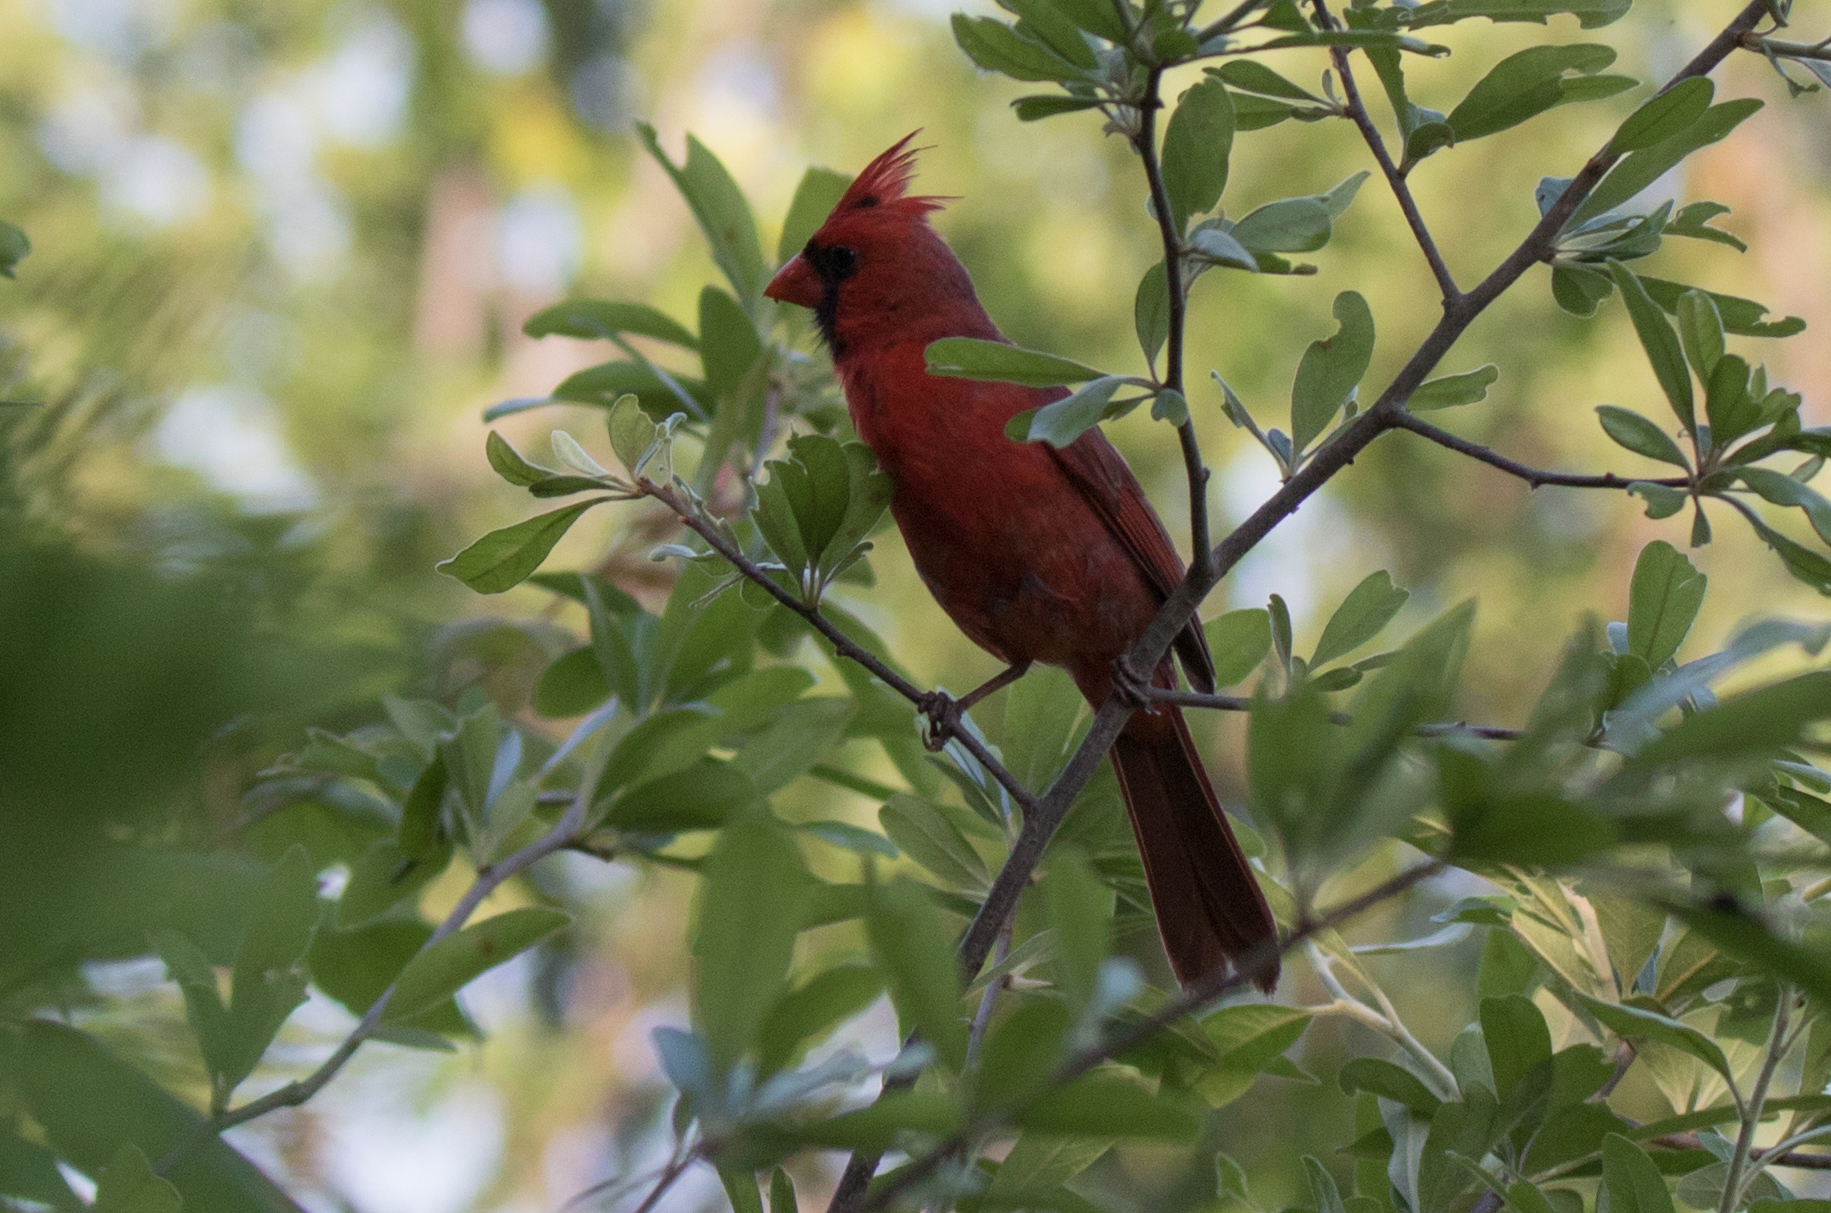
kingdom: Animalia
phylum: Chordata
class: Aves
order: Passeriformes
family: Cardinalidae
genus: Cardinalis
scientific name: Cardinalis cardinalis
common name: Northern cardinal
